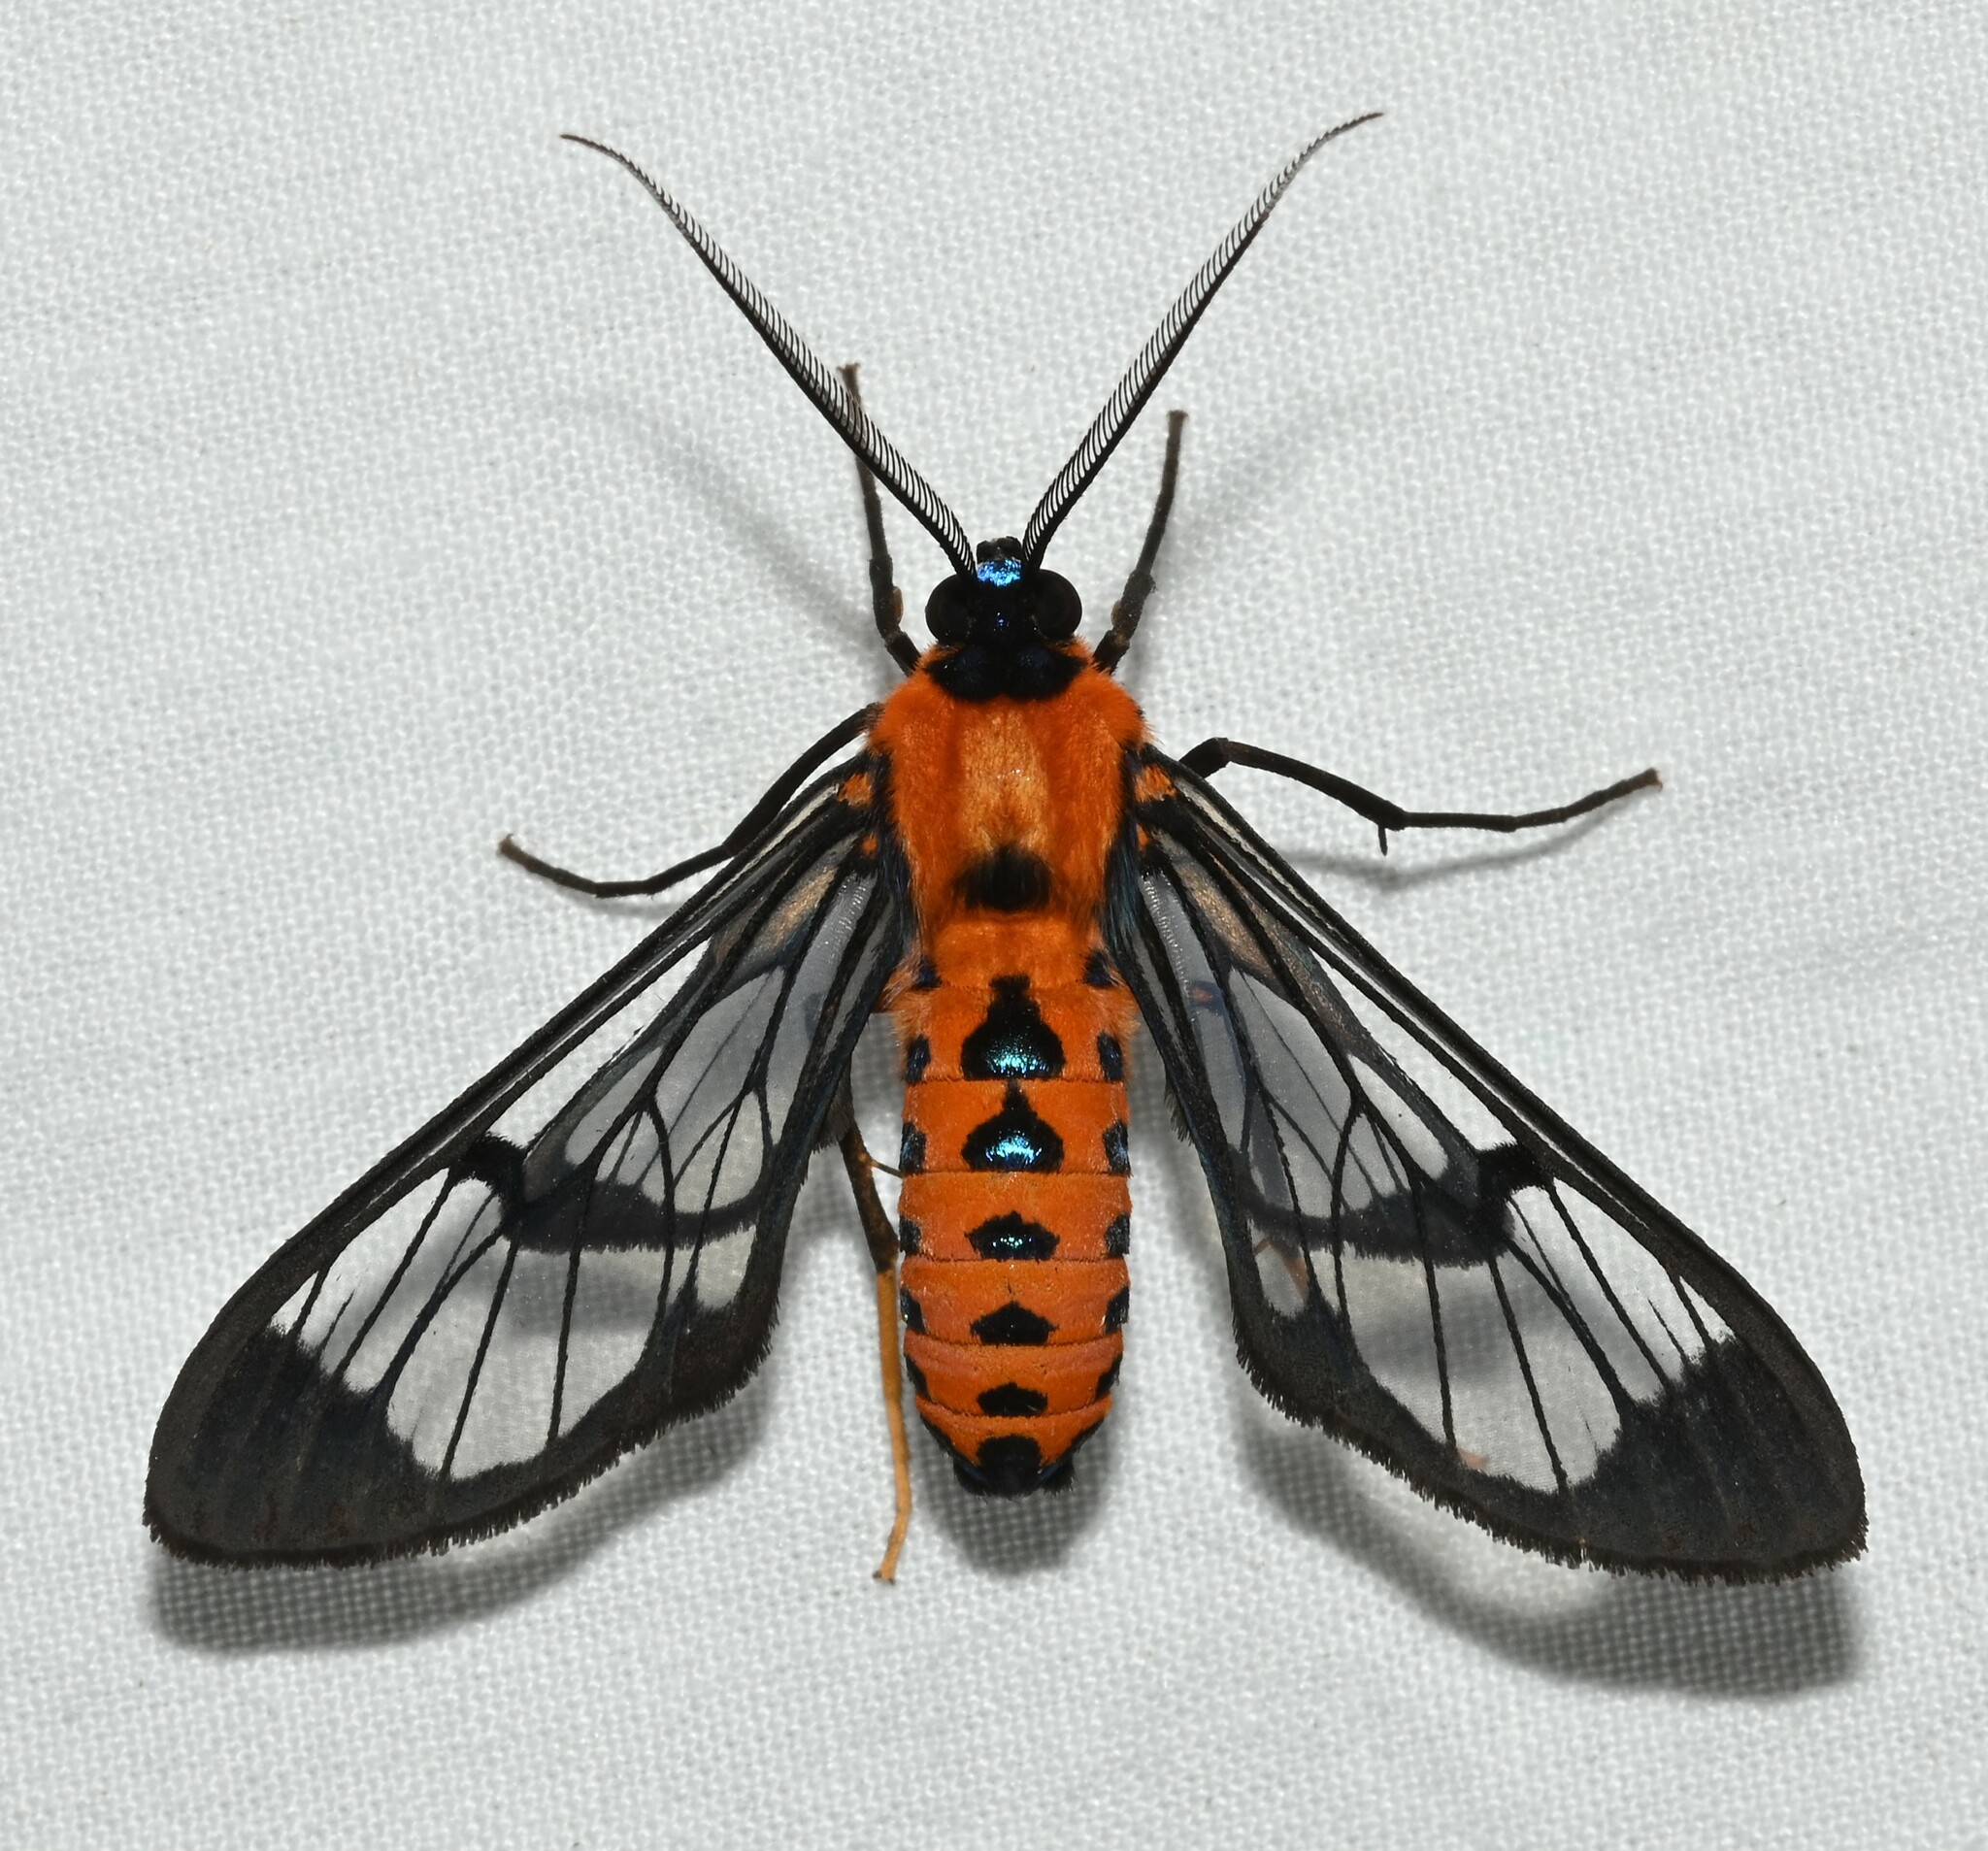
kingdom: Animalia
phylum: Arthropoda
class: Insecta
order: Lepidoptera
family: Erebidae
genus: Sarosa
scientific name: Sarosa helotes
